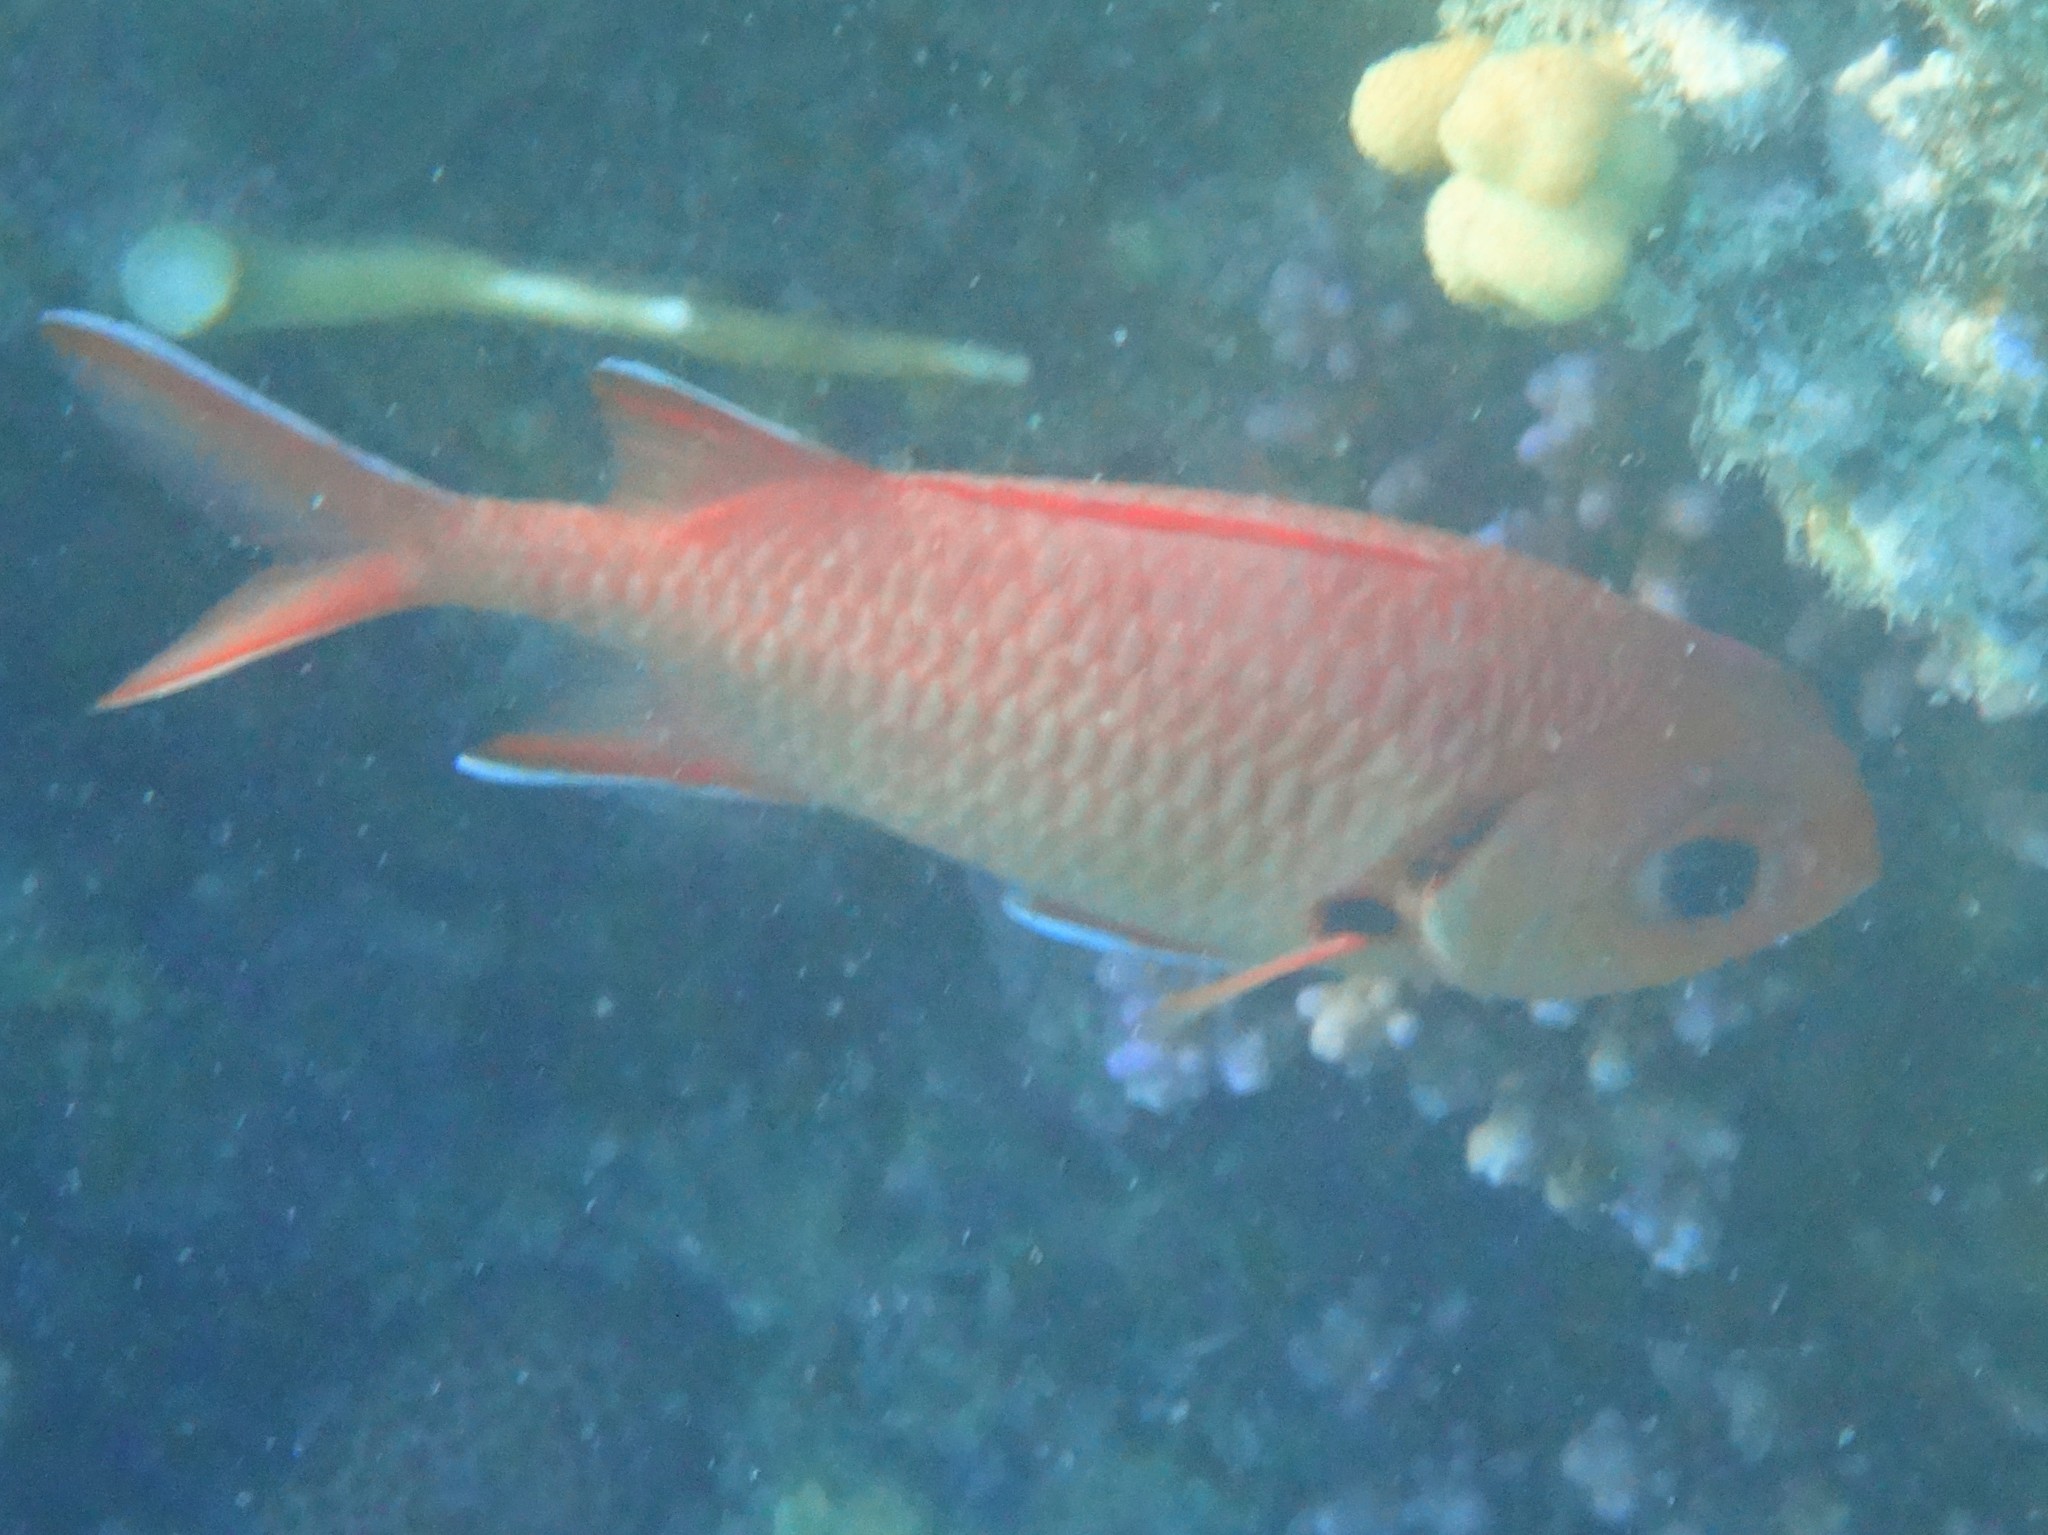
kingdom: Animalia
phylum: Chordata
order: Beryciformes
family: Holocentridae
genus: Myripristis
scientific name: Myripristis murdjan
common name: Big-eye soldierfish
